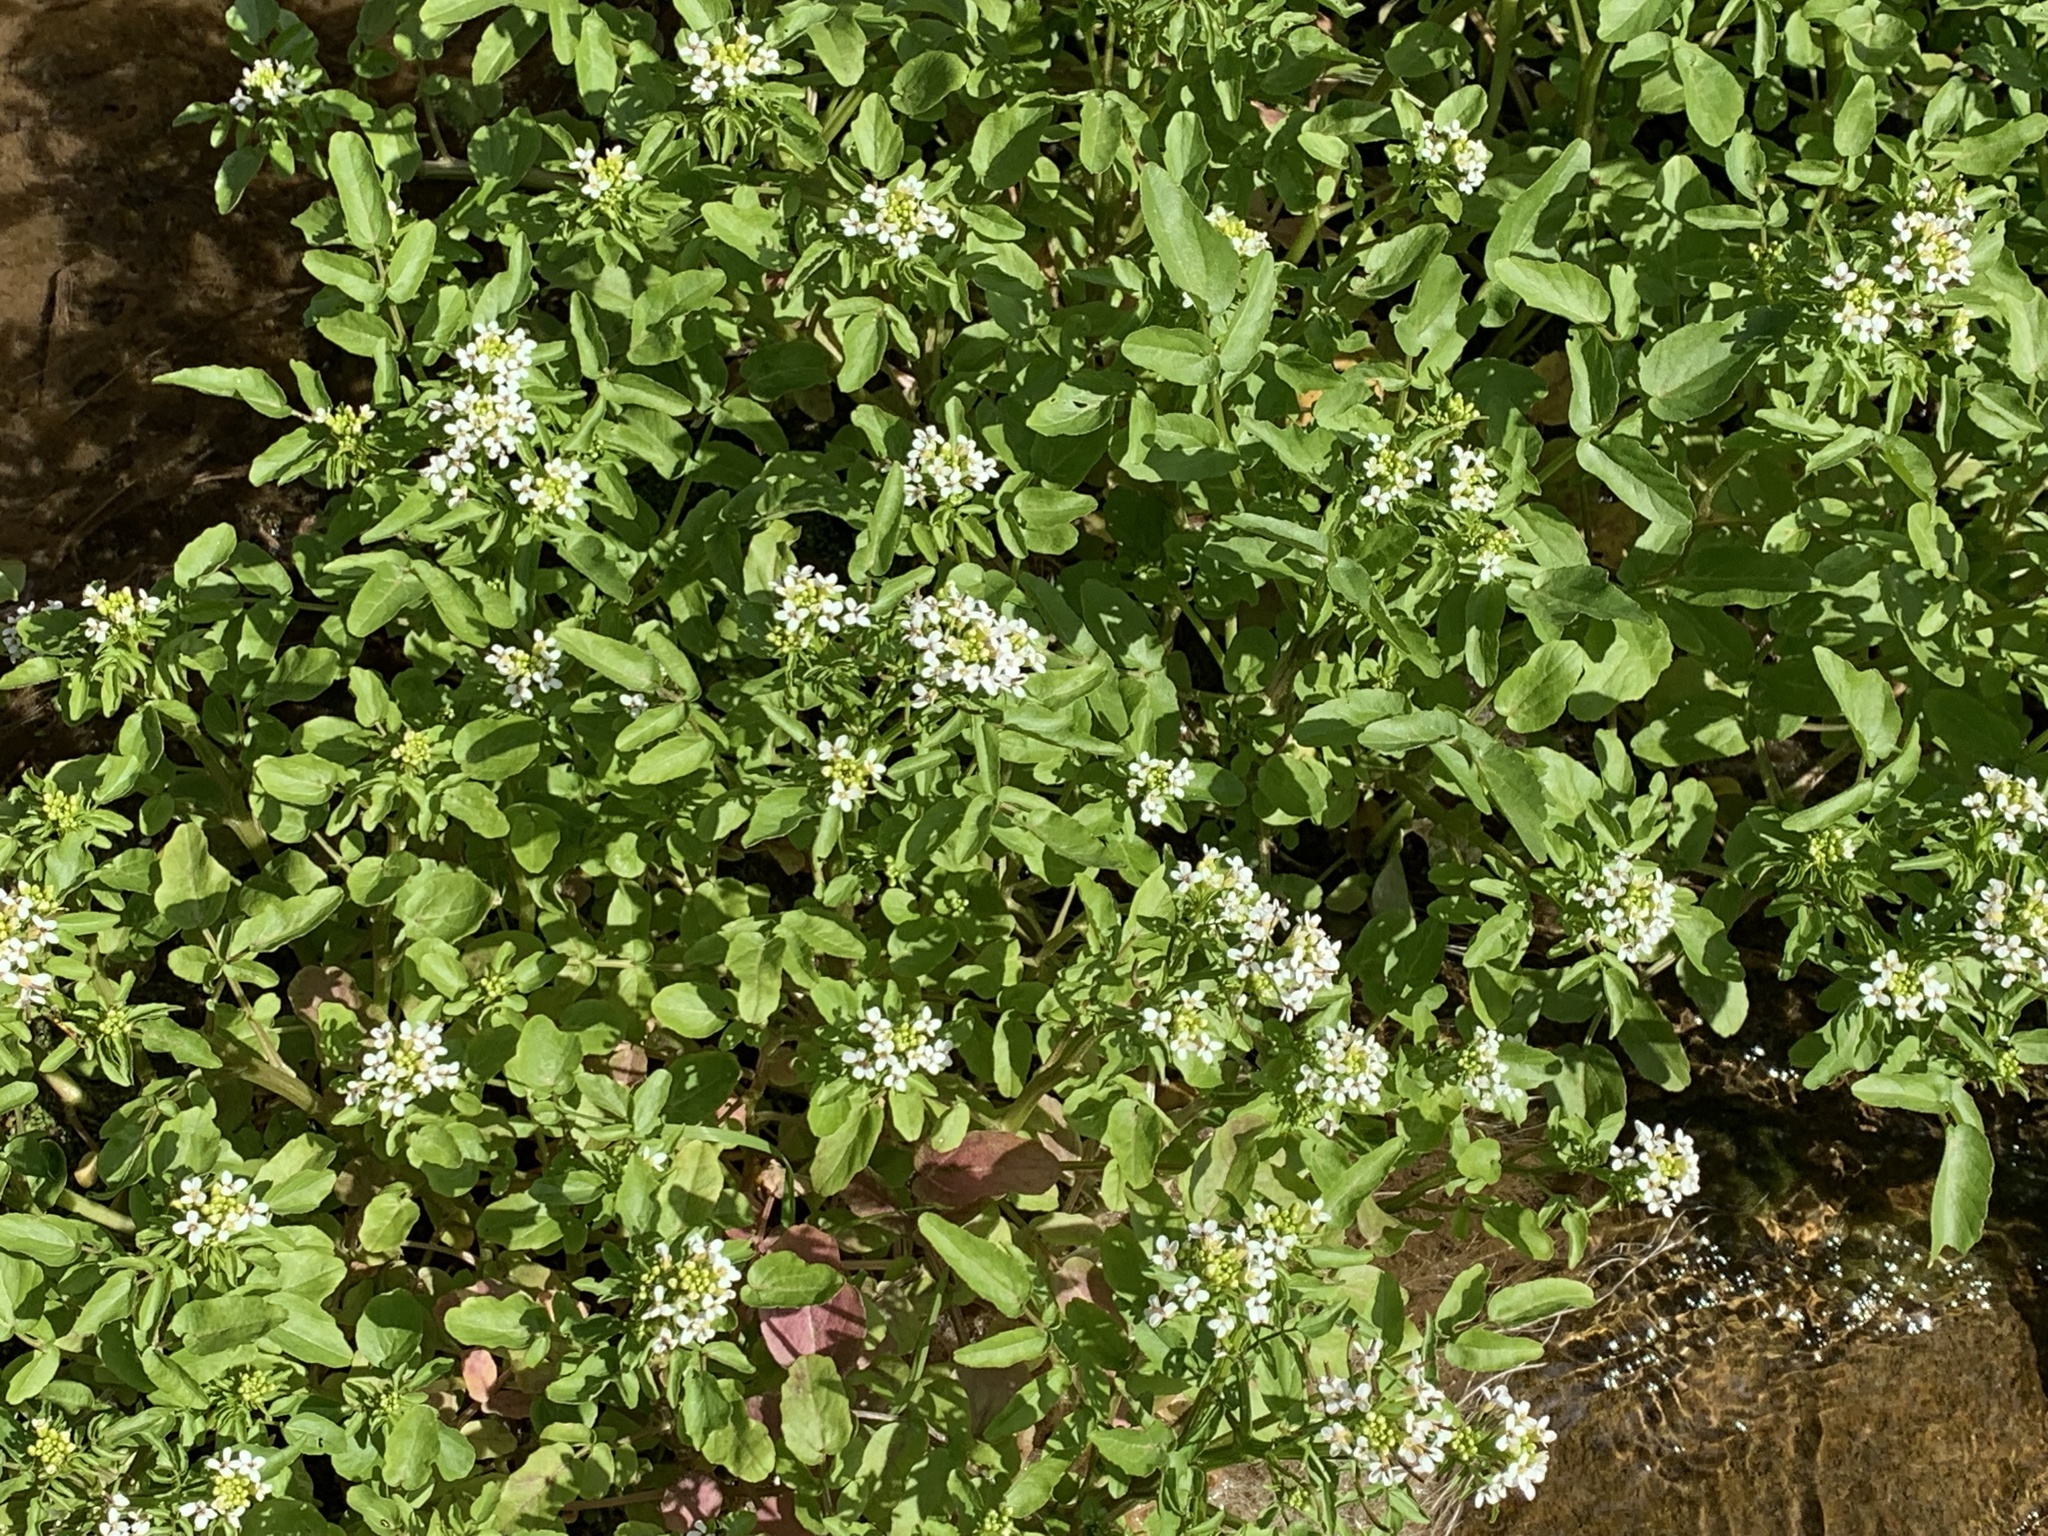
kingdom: Plantae
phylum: Tracheophyta
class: Magnoliopsida
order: Brassicales
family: Brassicaceae
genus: Nasturtium
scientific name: Nasturtium officinale
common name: Watercress
